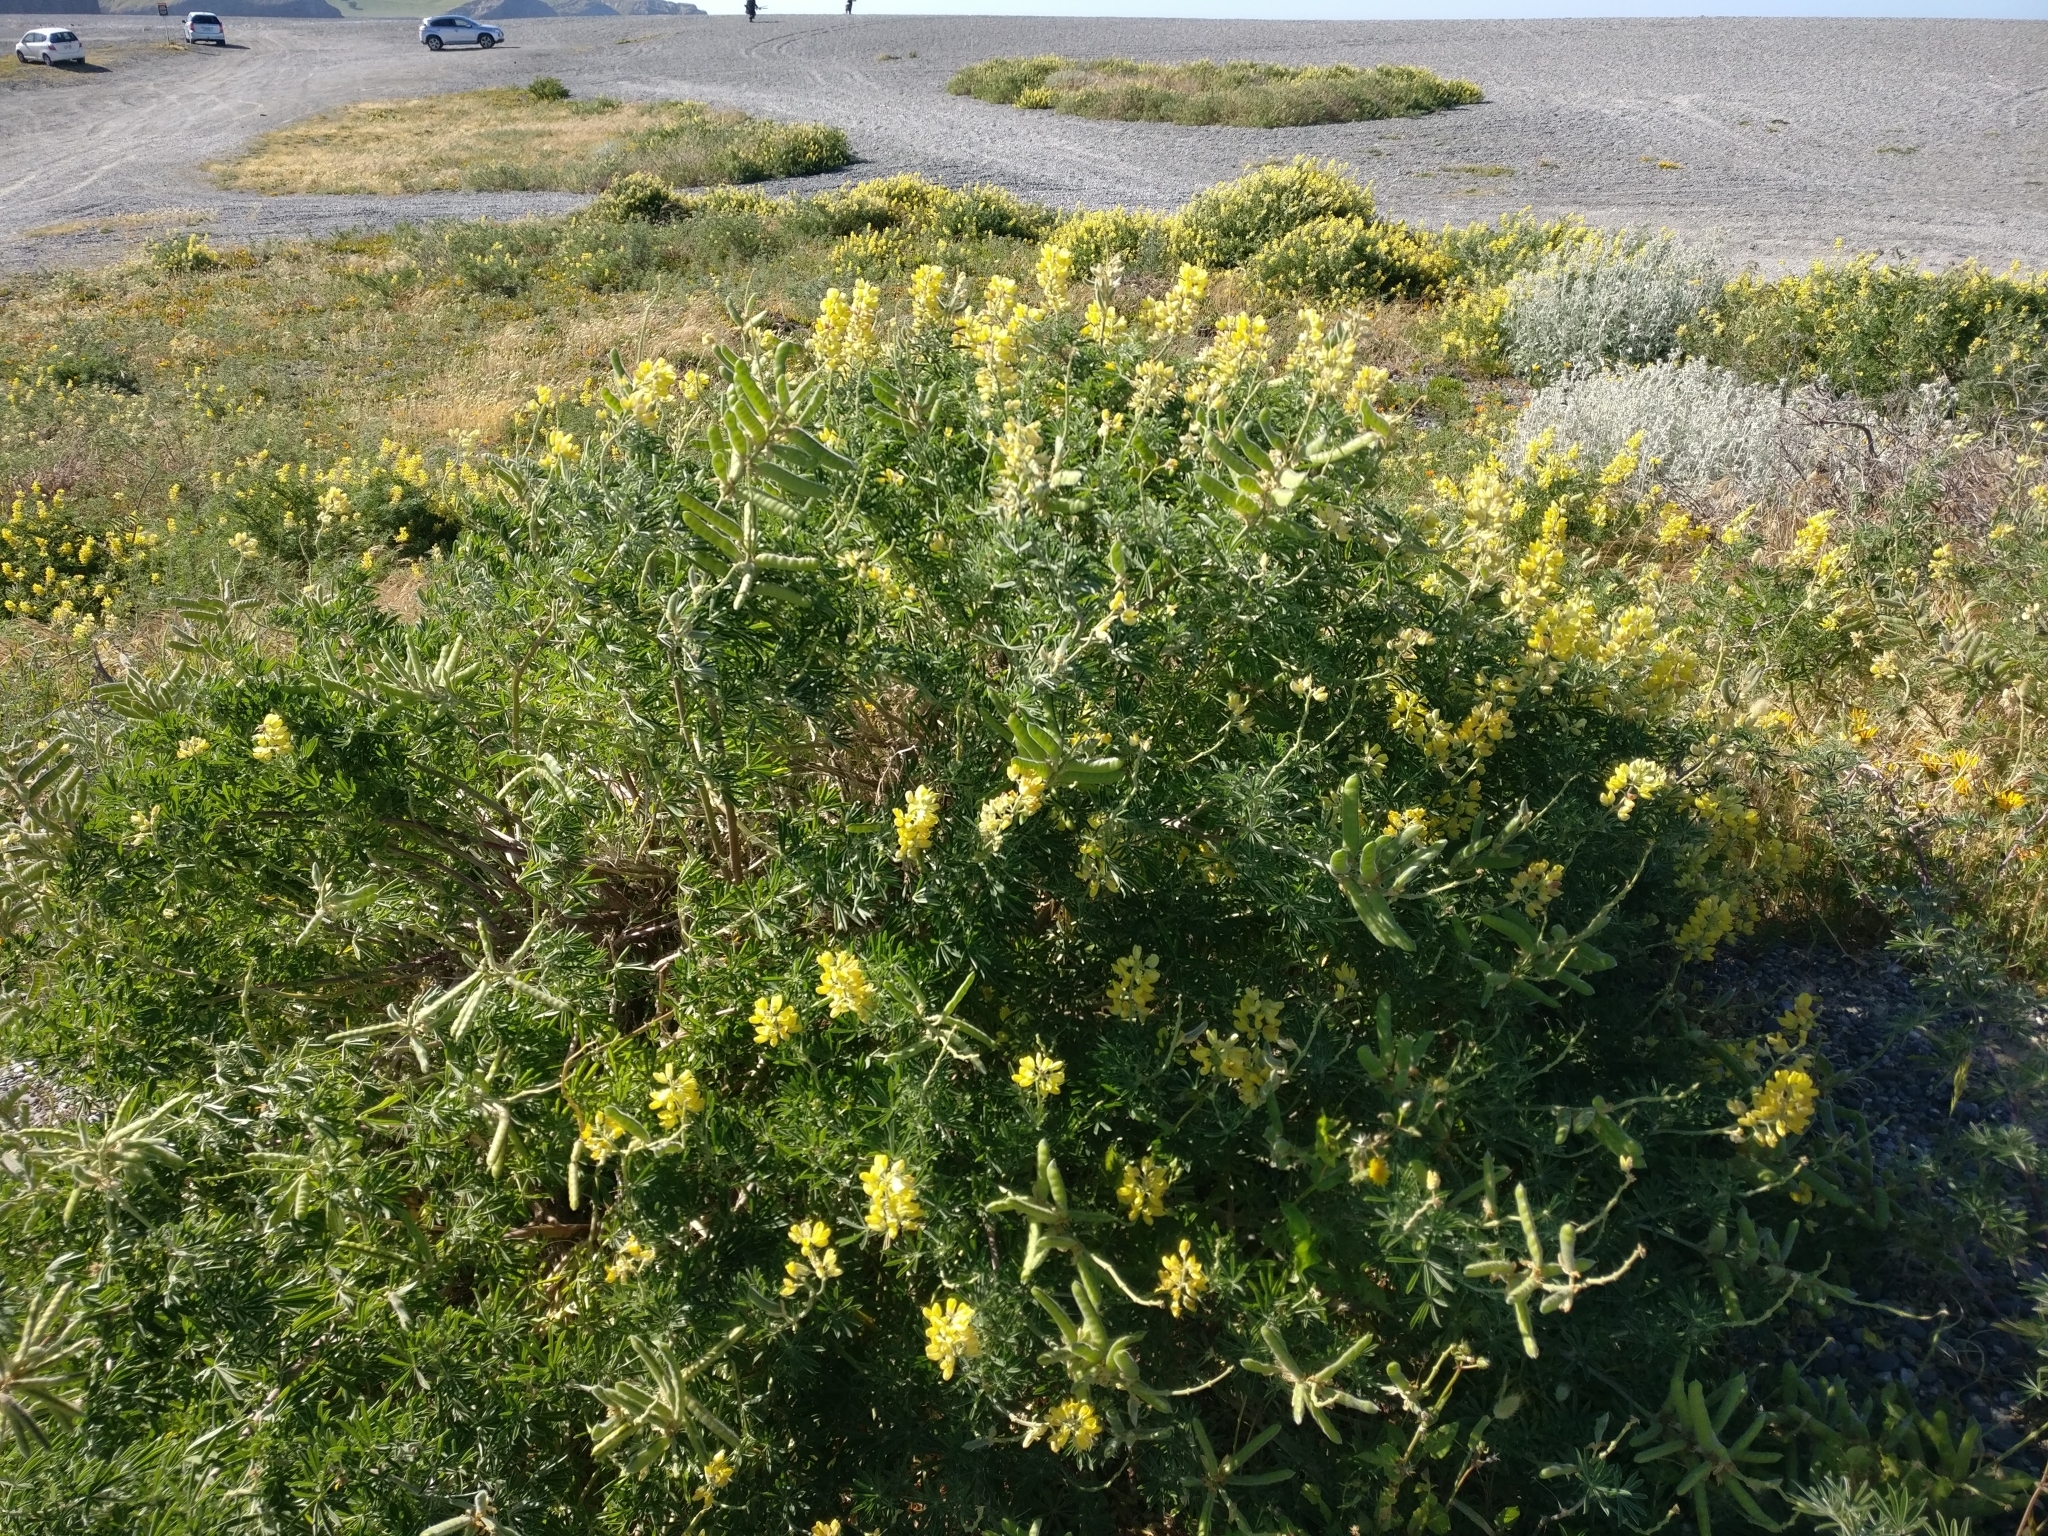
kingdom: Plantae
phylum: Tracheophyta
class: Magnoliopsida
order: Fabales
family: Fabaceae
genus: Lupinus
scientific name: Lupinus arboreus
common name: Yellow bush lupine
